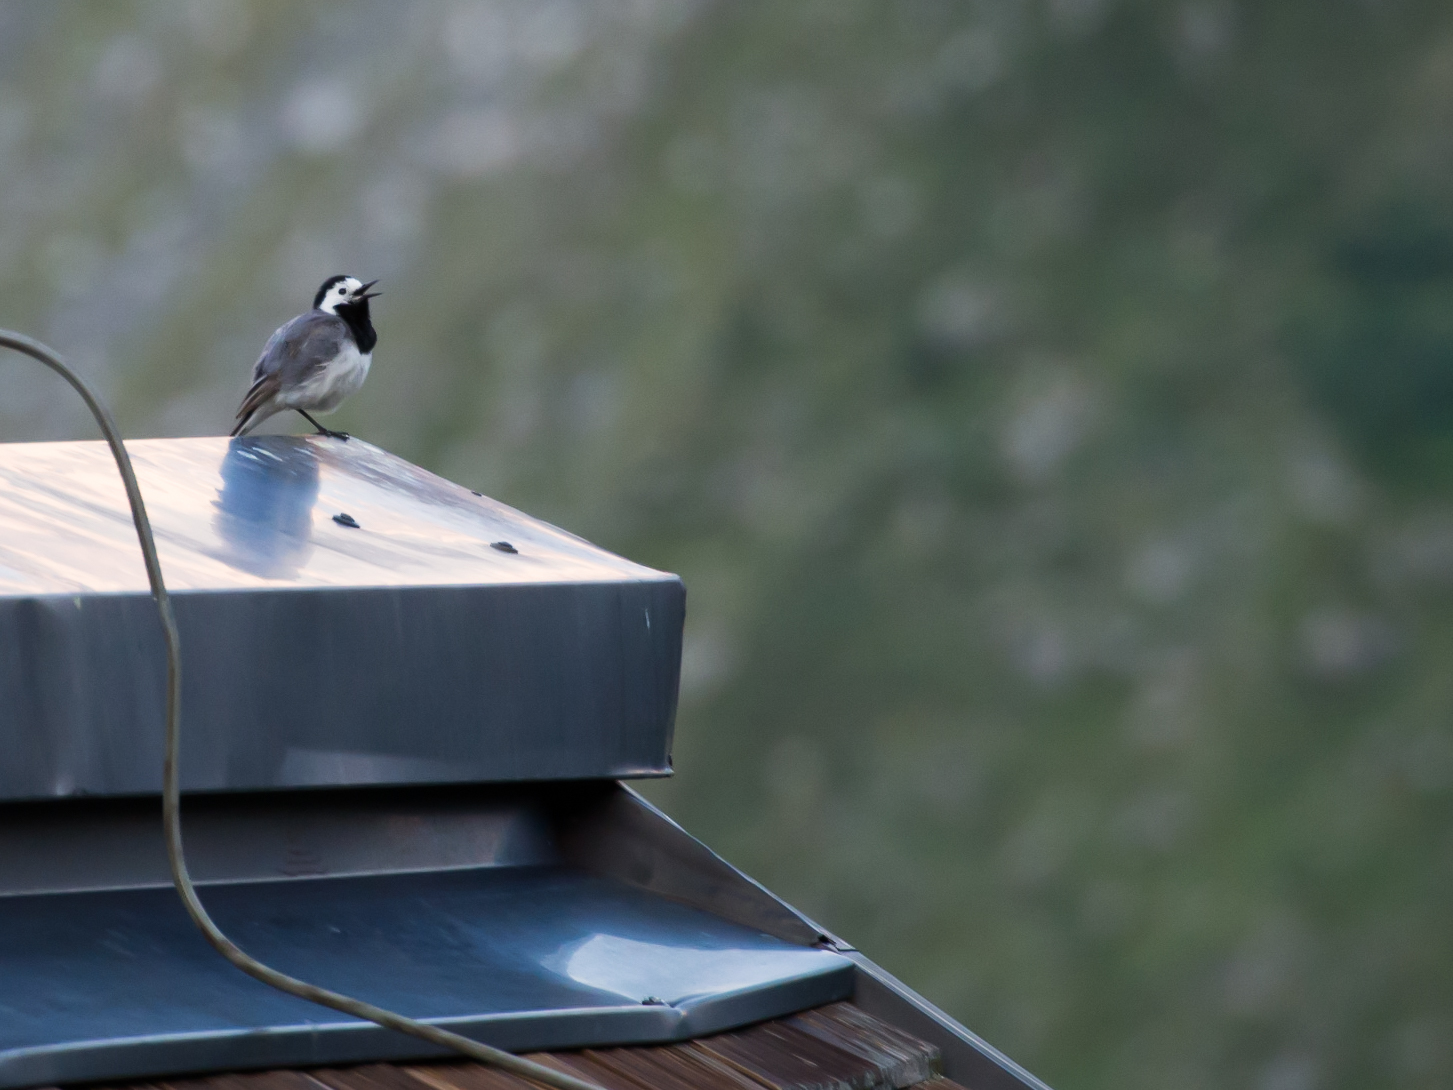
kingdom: Animalia
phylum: Chordata
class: Aves
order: Passeriformes
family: Motacillidae
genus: Motacilla
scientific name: Motacilla alba
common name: White wagtail
